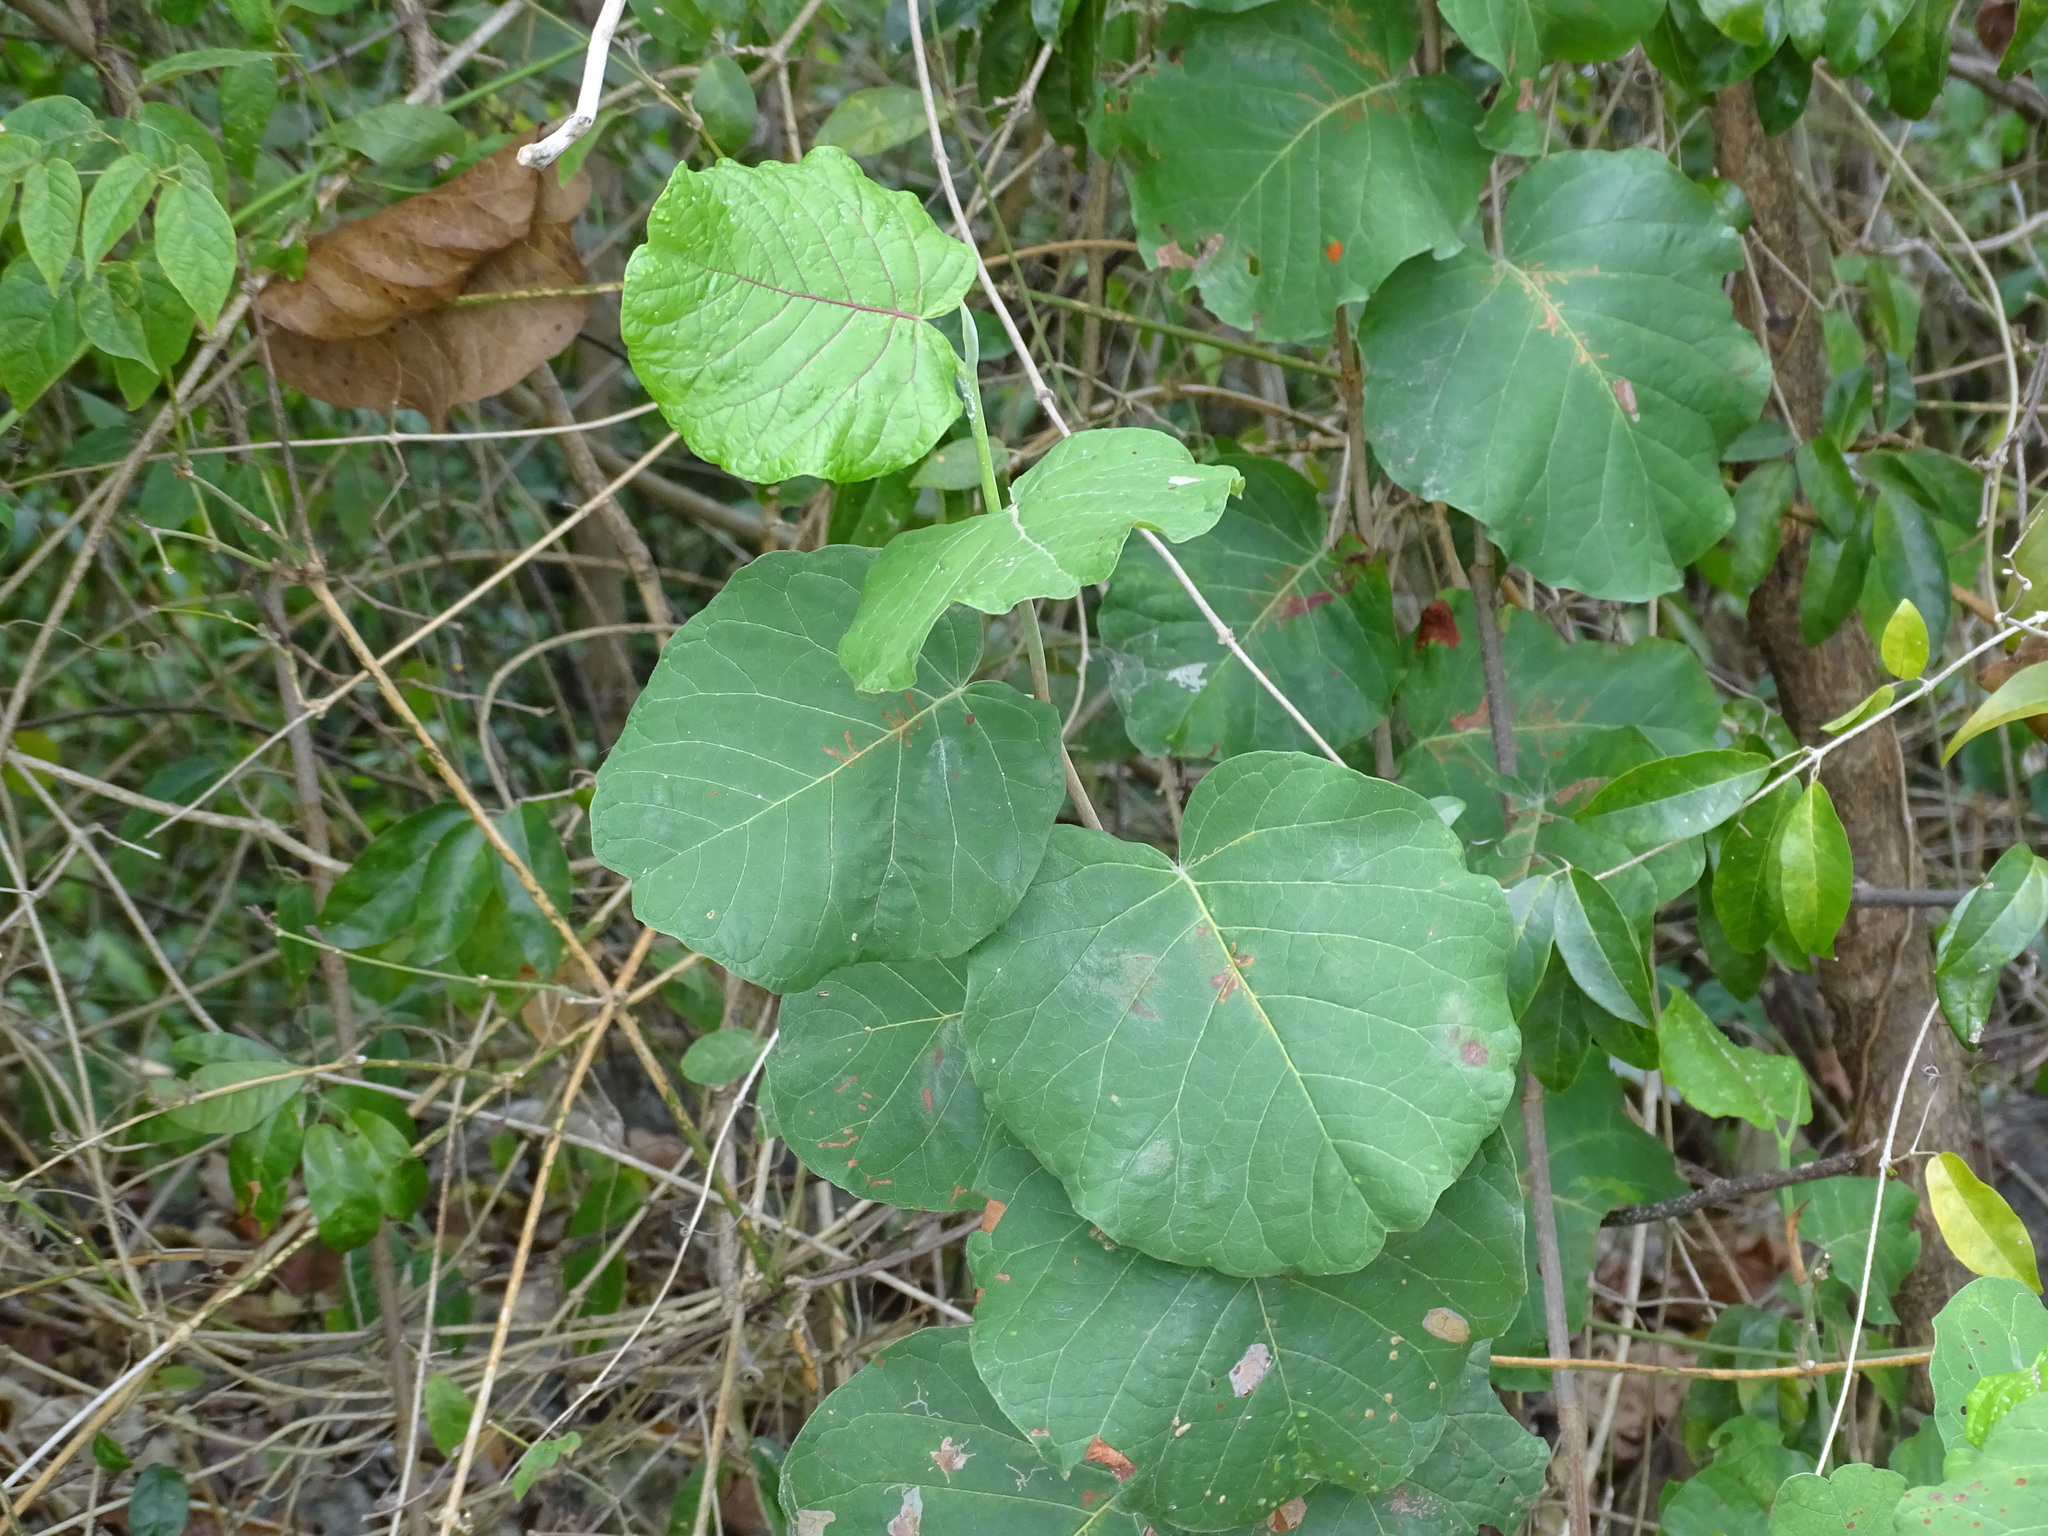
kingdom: Plantae
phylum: Tracheophyta
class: Magnoliopsida
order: Caryophyllales
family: Polygonaceae
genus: Neomillspaughia
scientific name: Neomillspaughia emarginata
